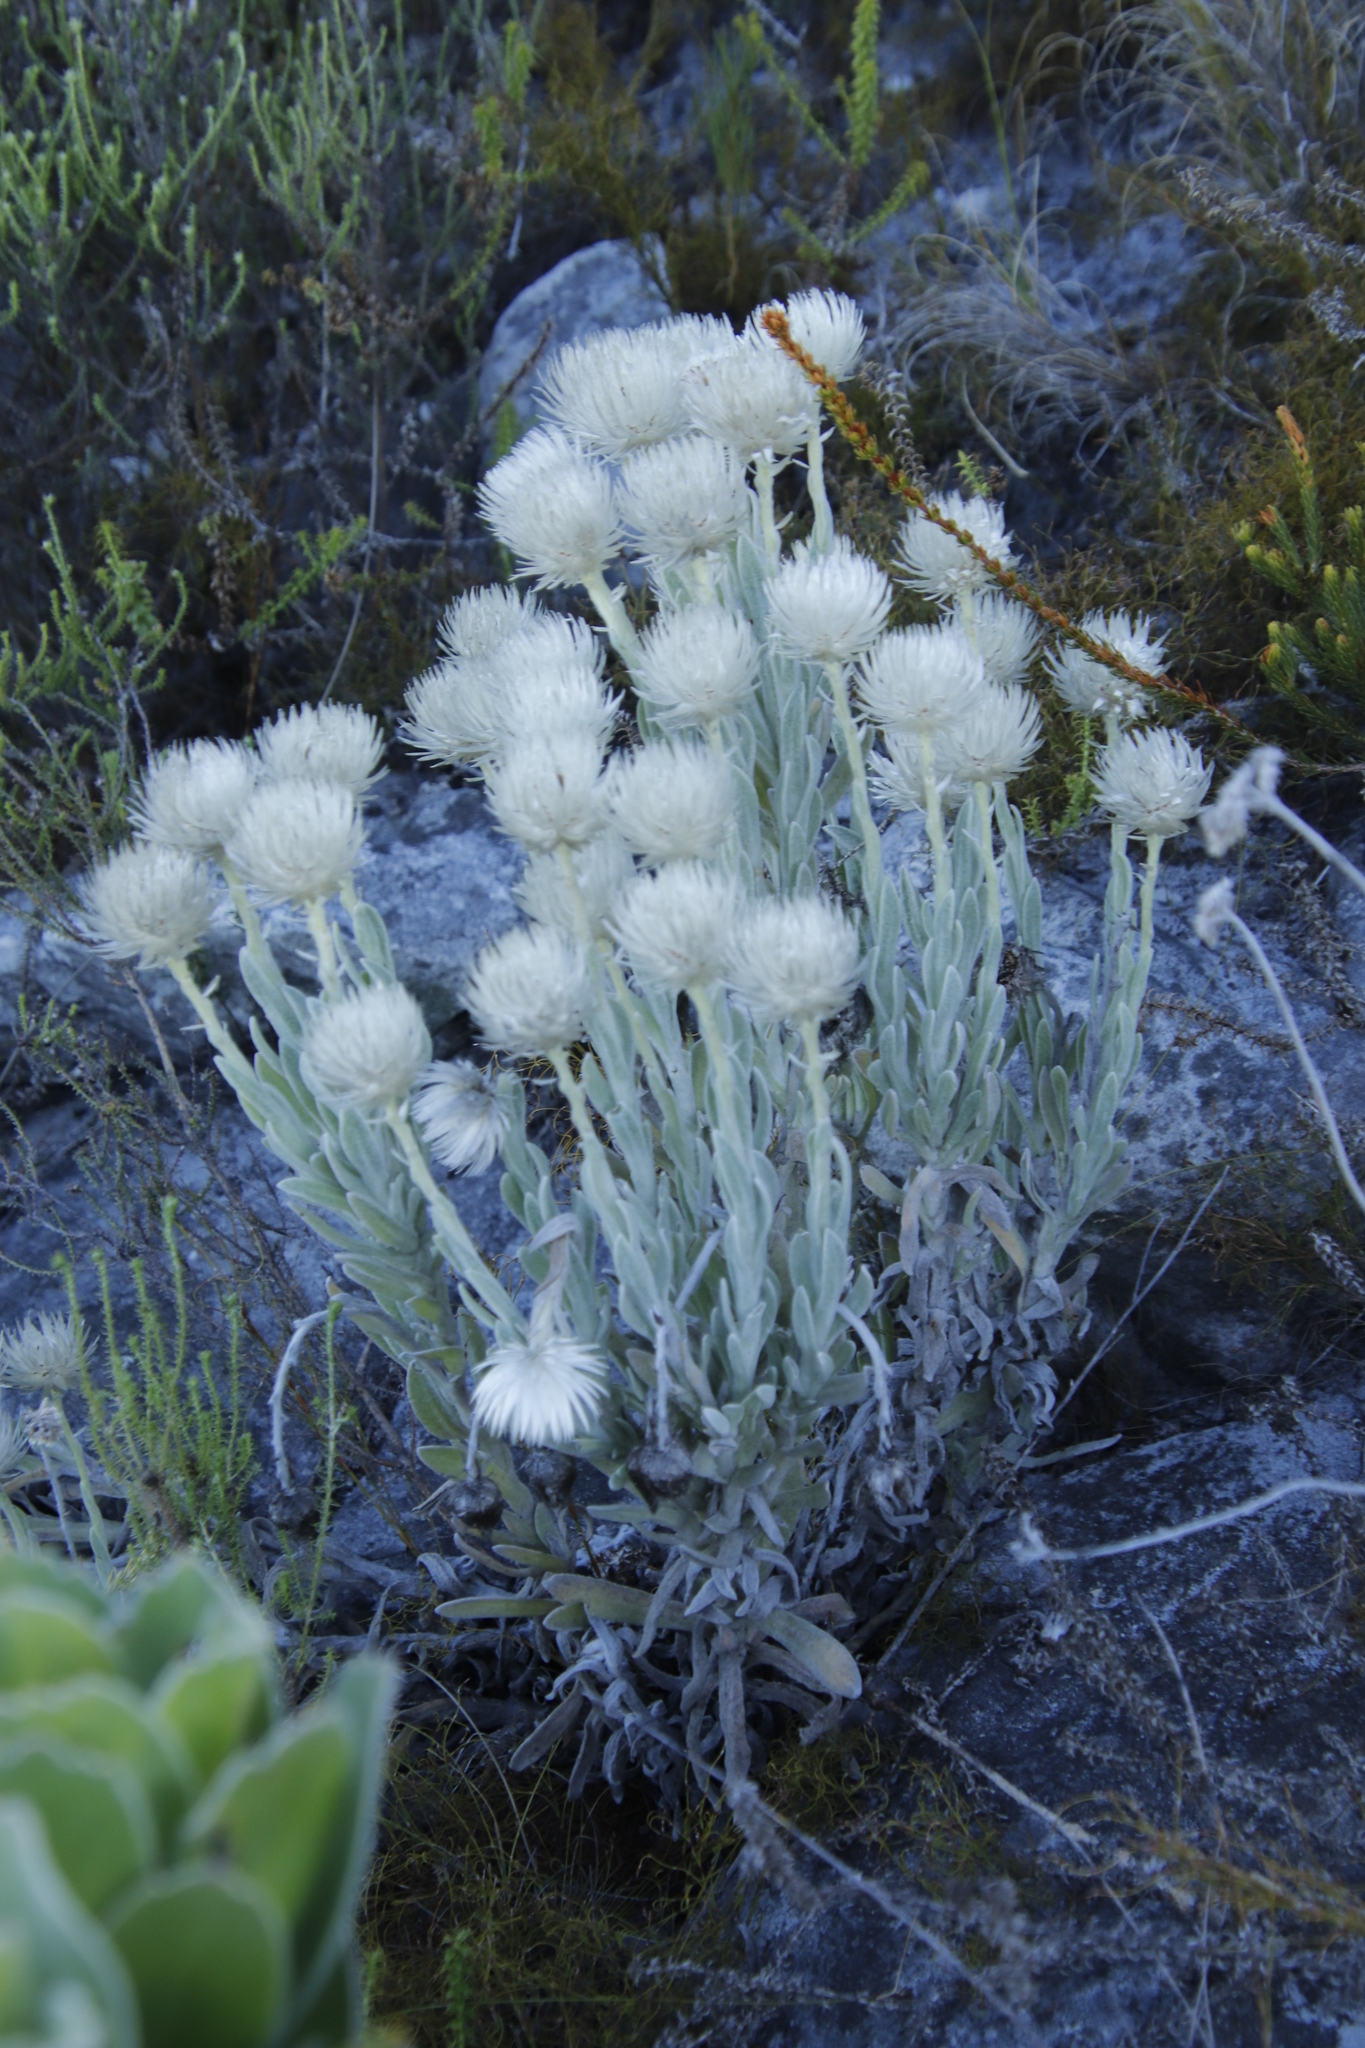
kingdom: Plantae
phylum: Tracheophyta
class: Magnoliopsida
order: Asterales
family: Asteraceae
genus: Syncarpha
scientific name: Syncarpha vestita
